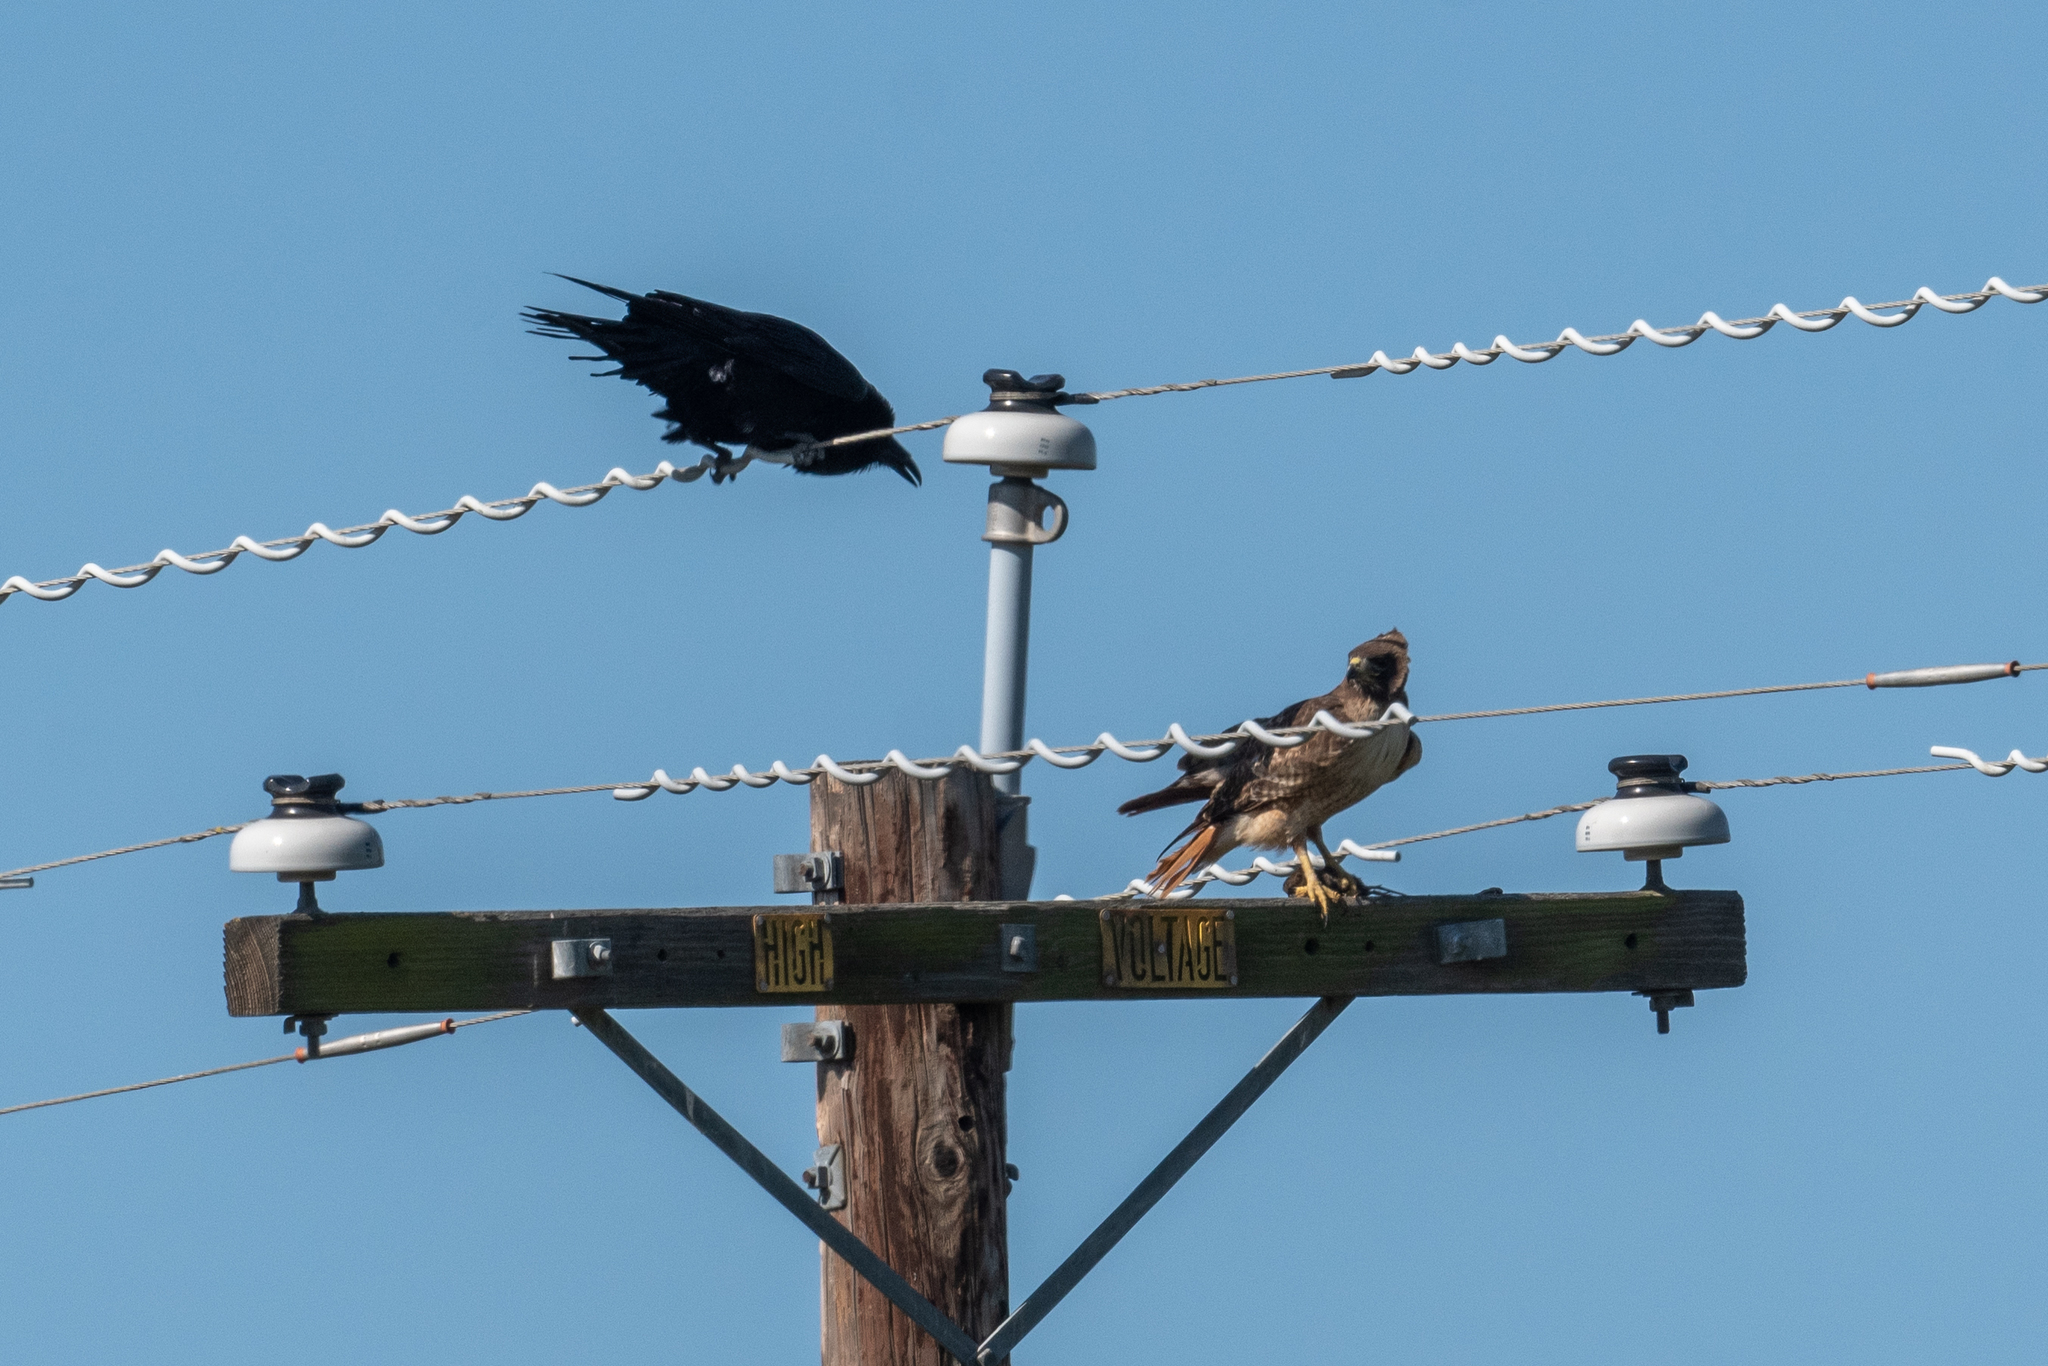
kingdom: Animalia
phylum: Chordata
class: Aves
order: Accipitriformes
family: Accipitridae
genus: Buteo
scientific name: Buteo jamaicensis
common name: Red-tailed hawk
